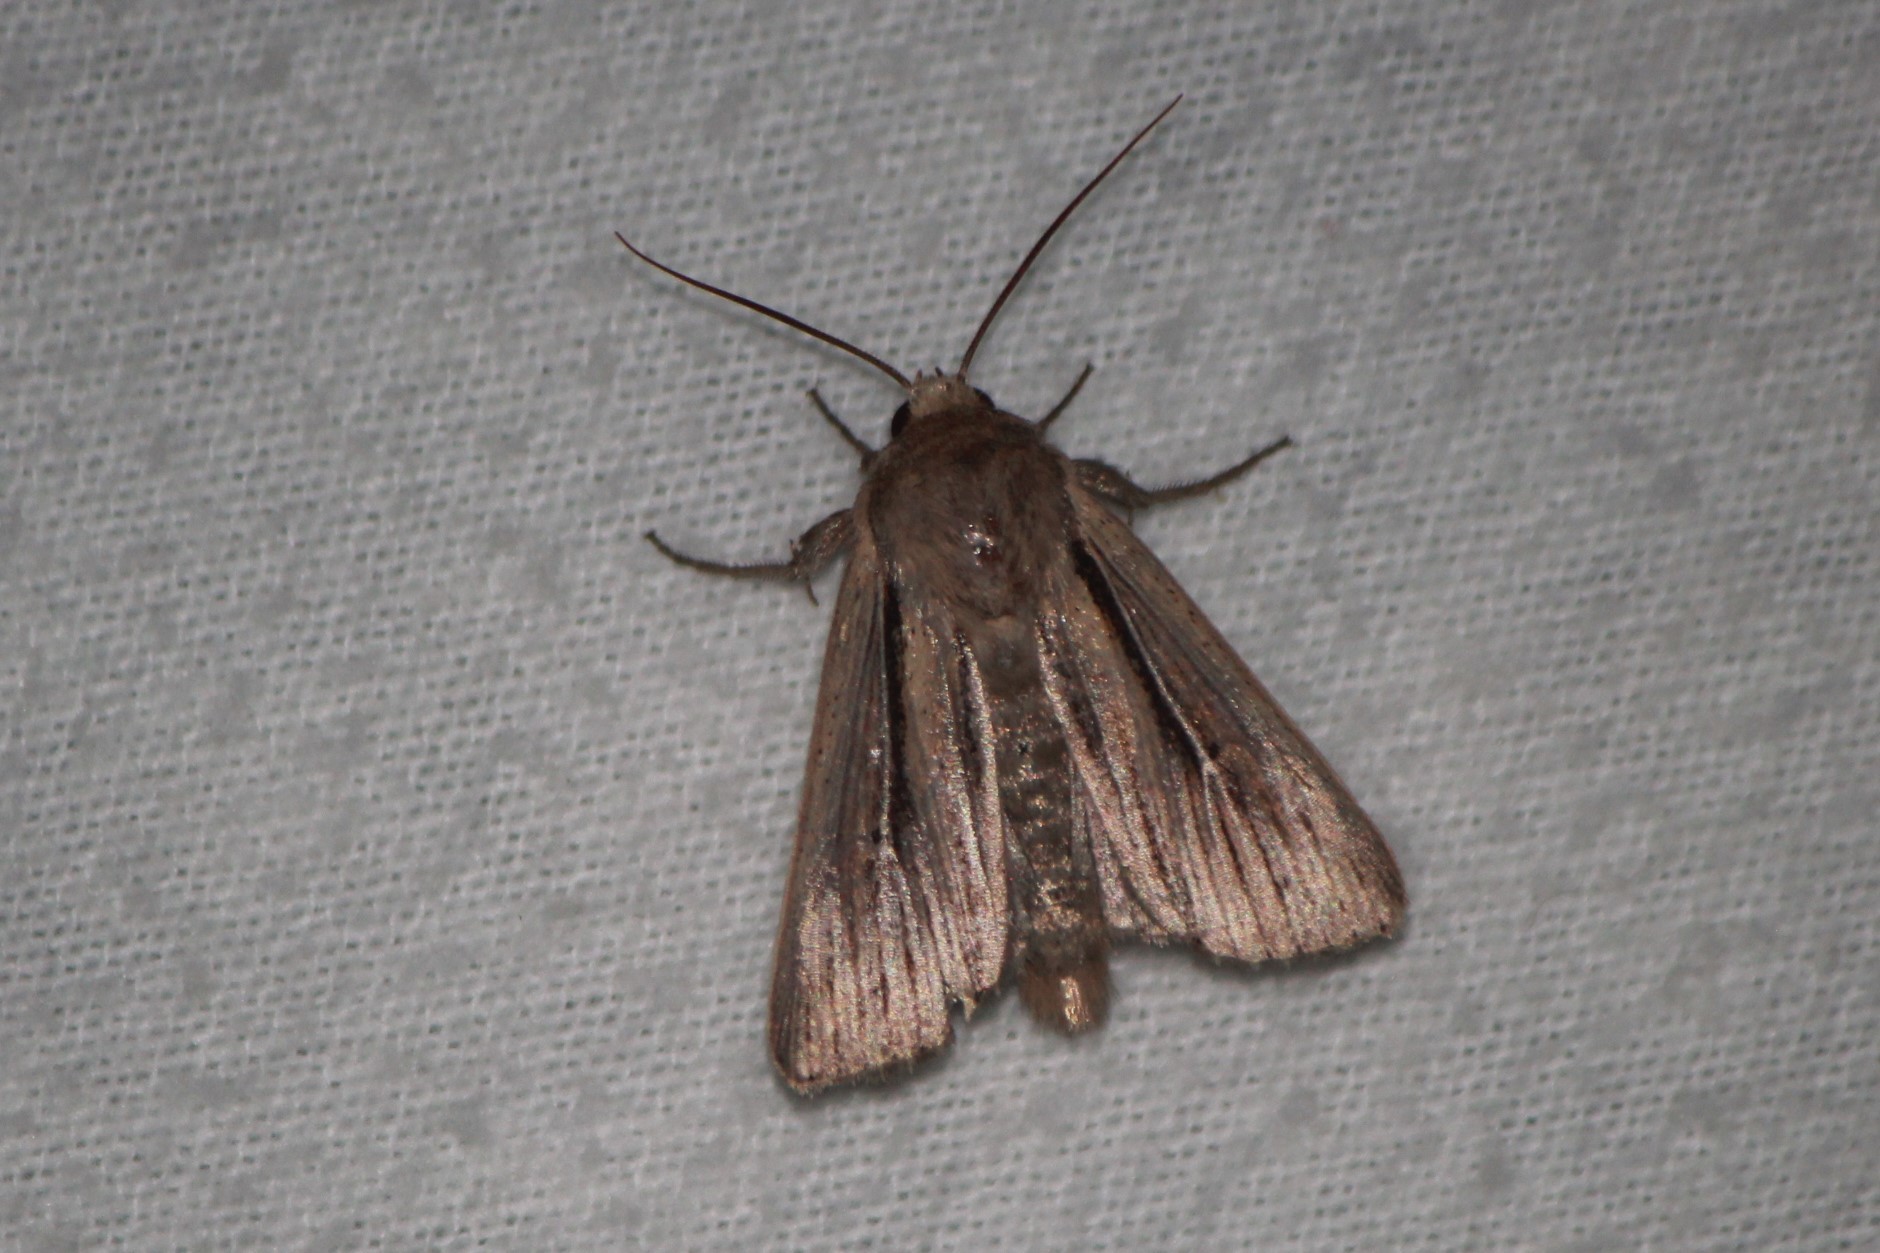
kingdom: Animalia
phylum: Arthropoda
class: Insecta
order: Lepidoptera
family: Noctuidae
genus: Leucania
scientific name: Leucania commoides
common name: Two-lined wainscot
